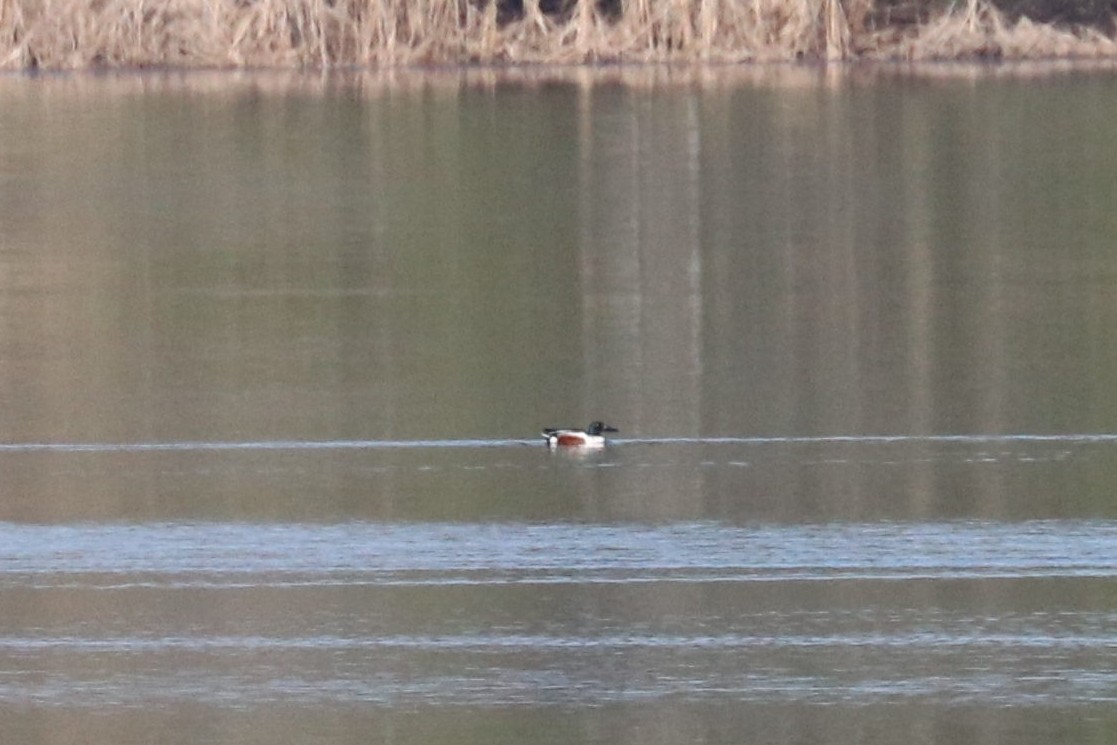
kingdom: Animalia
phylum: Chordata
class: Aves
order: Anseriformes
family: Anatidae
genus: Spatula
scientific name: Spatula clypeata
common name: Northern shoveler
